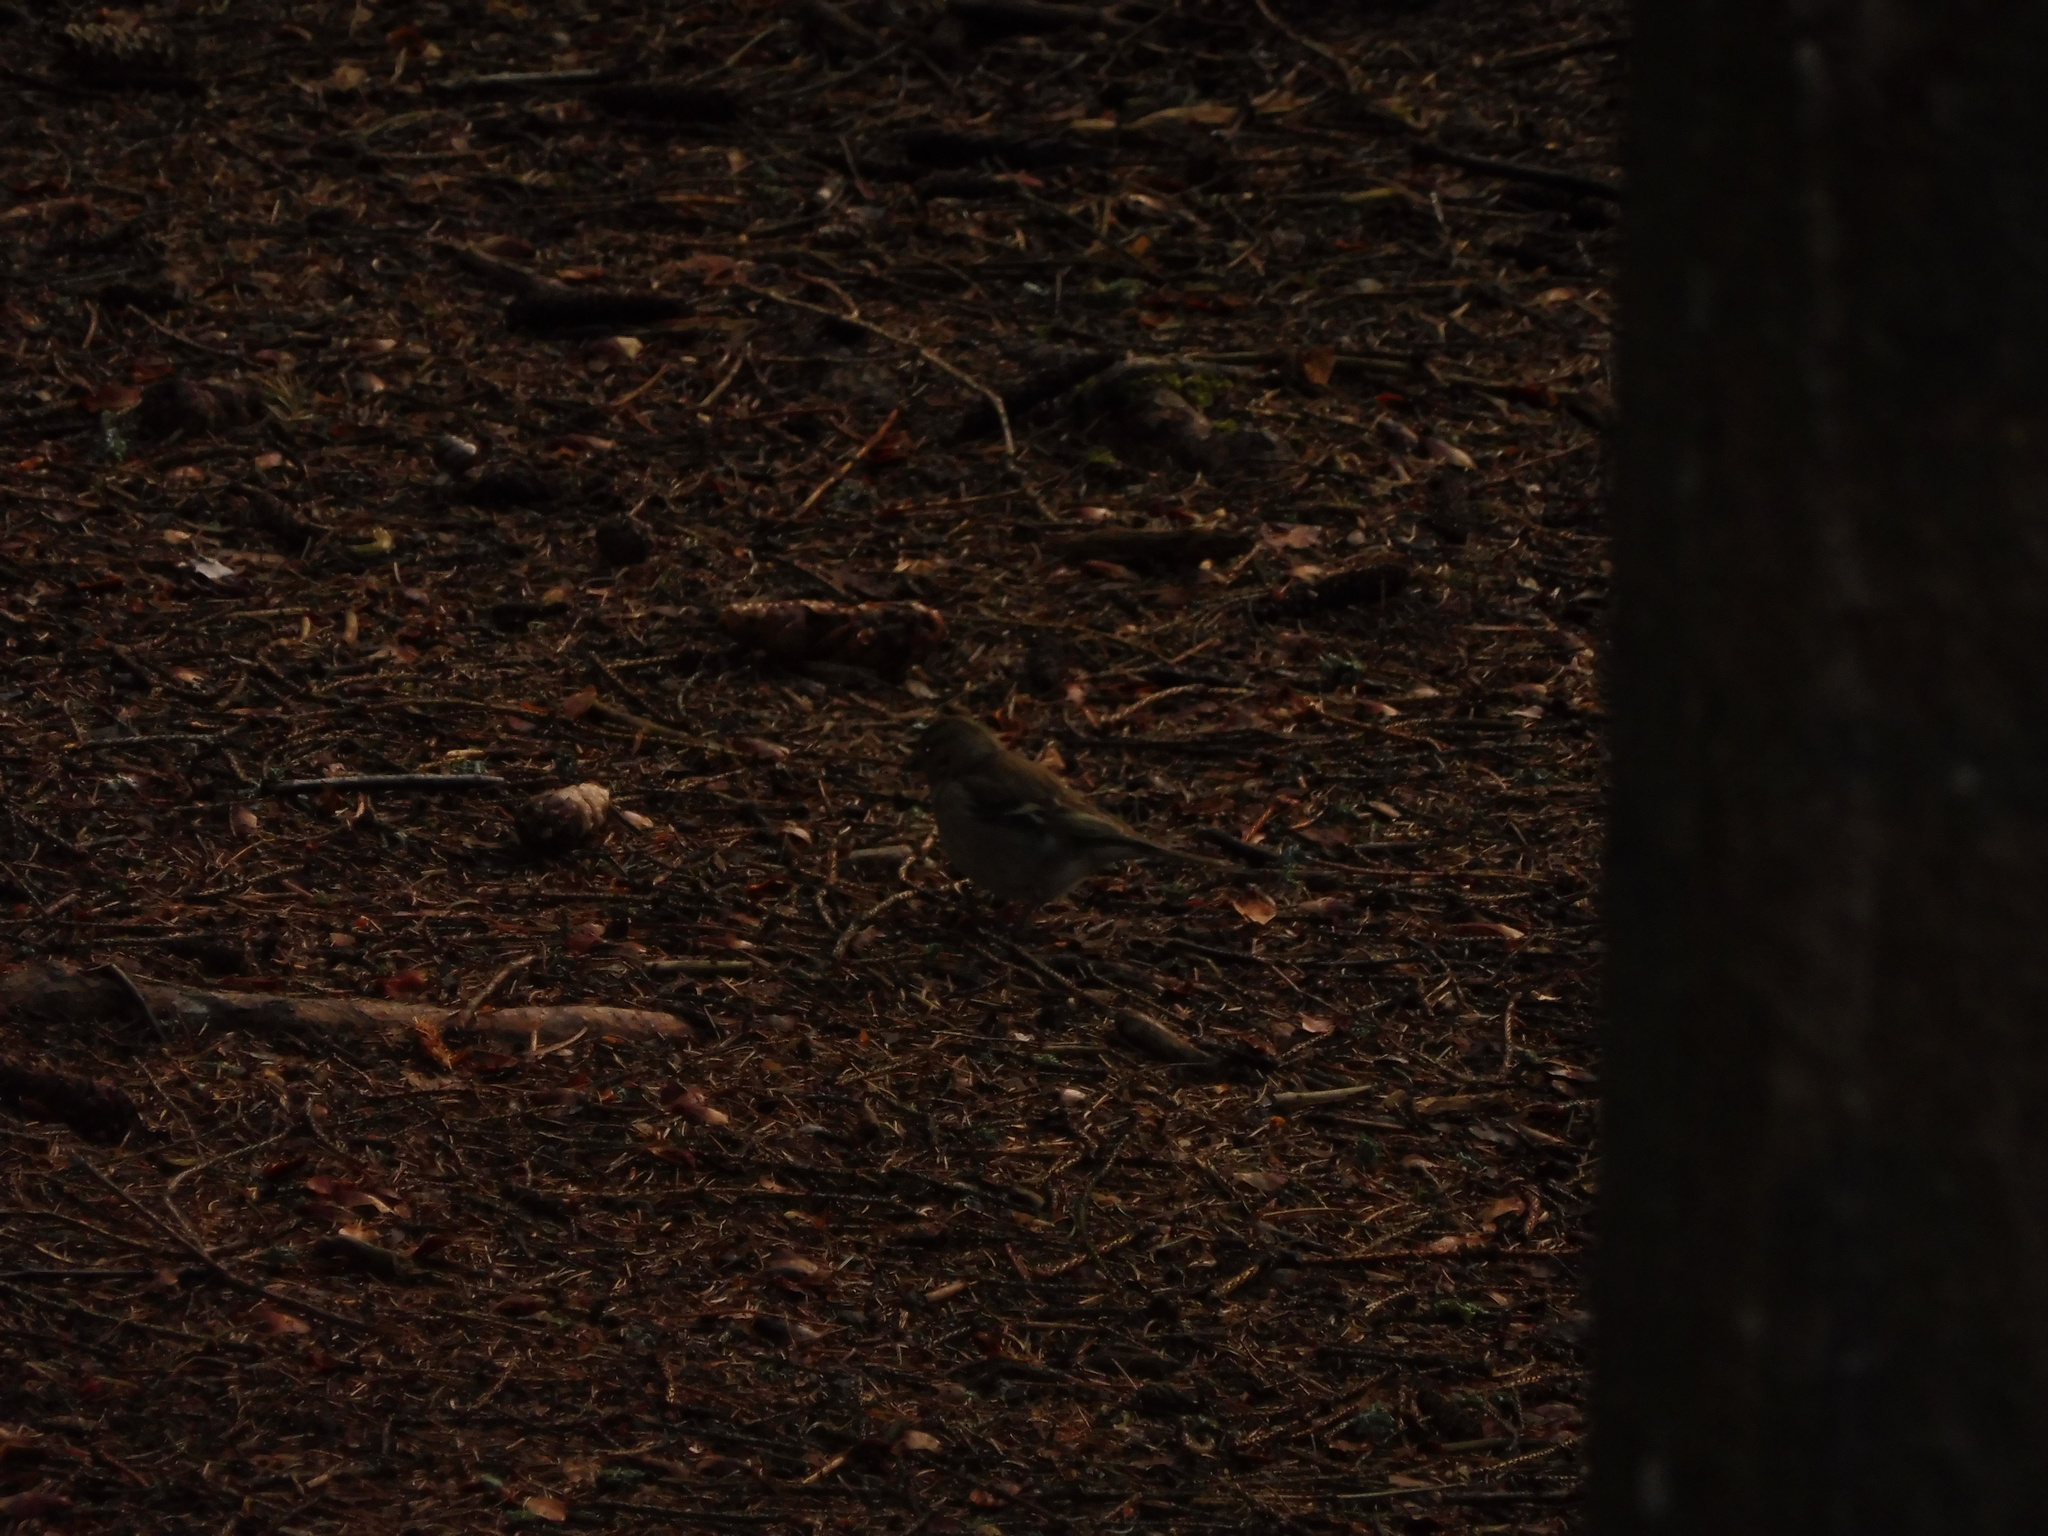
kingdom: Animalia
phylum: Chordata
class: Aves
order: Passeriformes
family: Fringillidae
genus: Fringilla
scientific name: Fringilla coelebs
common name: Common chaffinch
